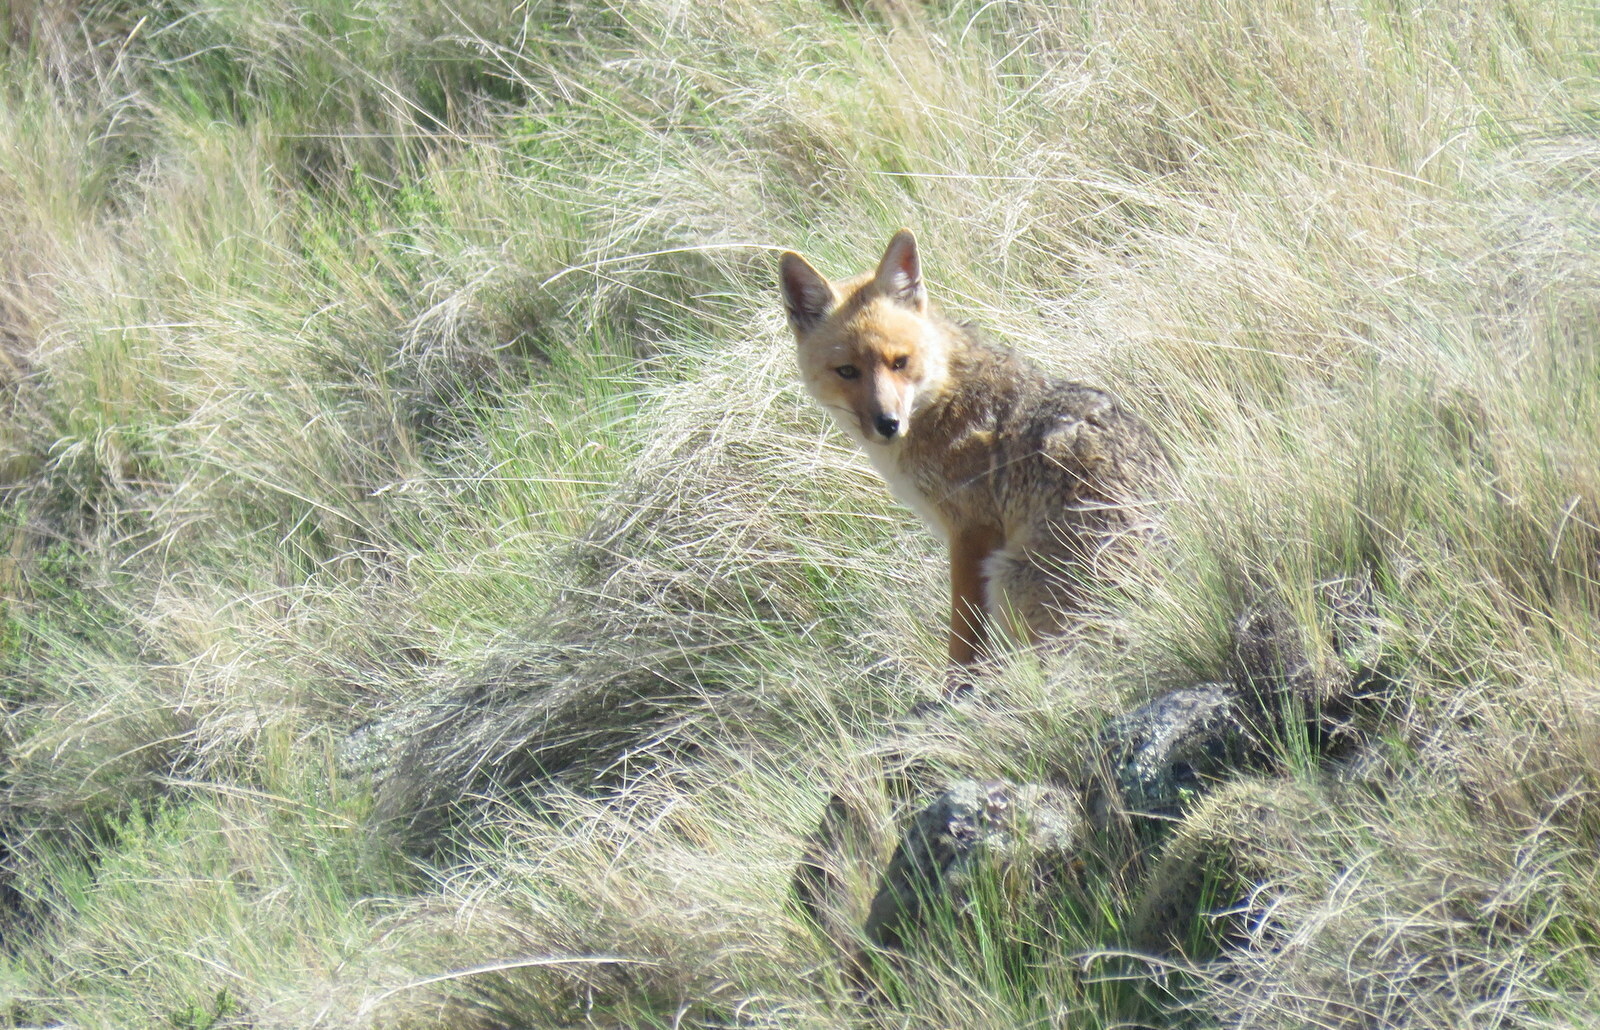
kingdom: Animalia
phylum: Chordata
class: Mammalia
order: Carnivora
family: Canidae
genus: Lycalopex
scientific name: Lycalopex culpaeus
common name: Culpeo
